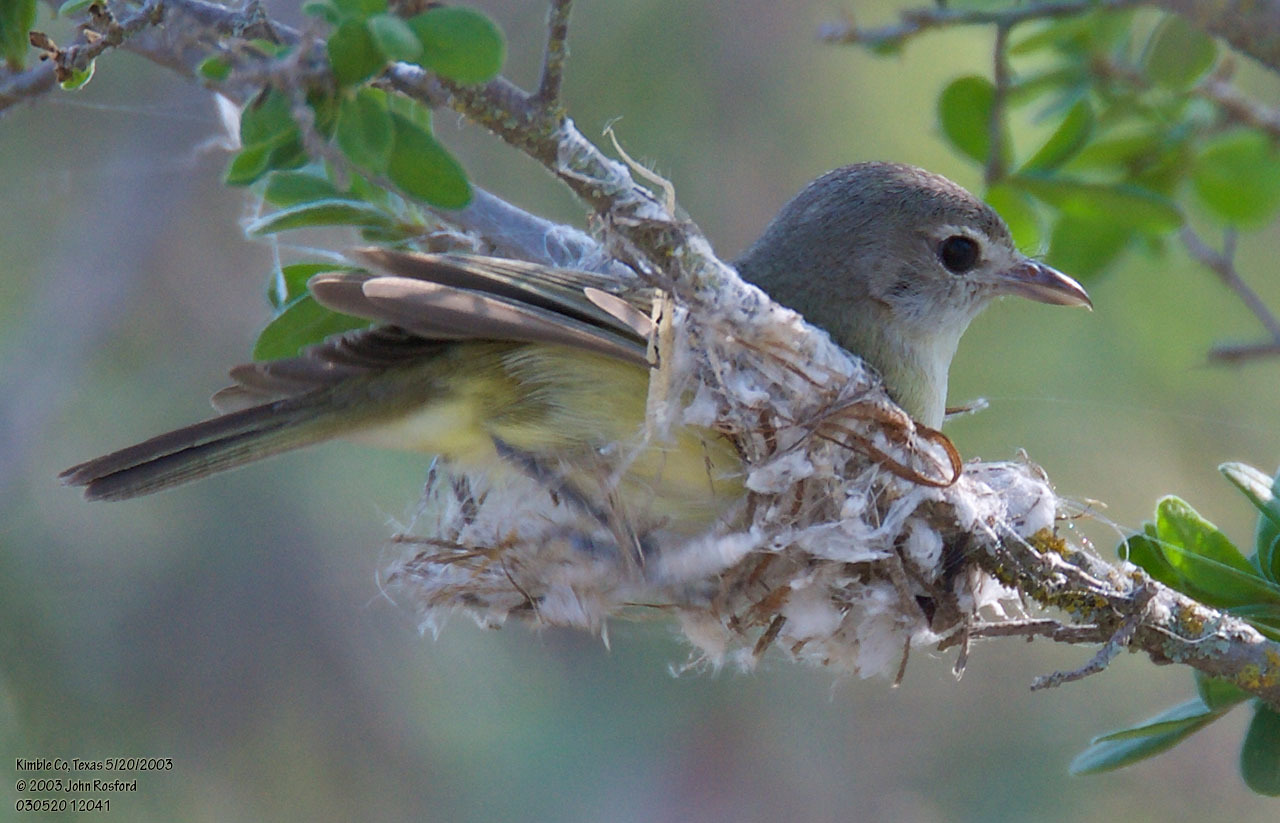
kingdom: Animalia
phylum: Chordata
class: Aves
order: Passeriformes
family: Vireonidae
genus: Vireo
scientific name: Vireo bellii
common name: Bell's vireo
